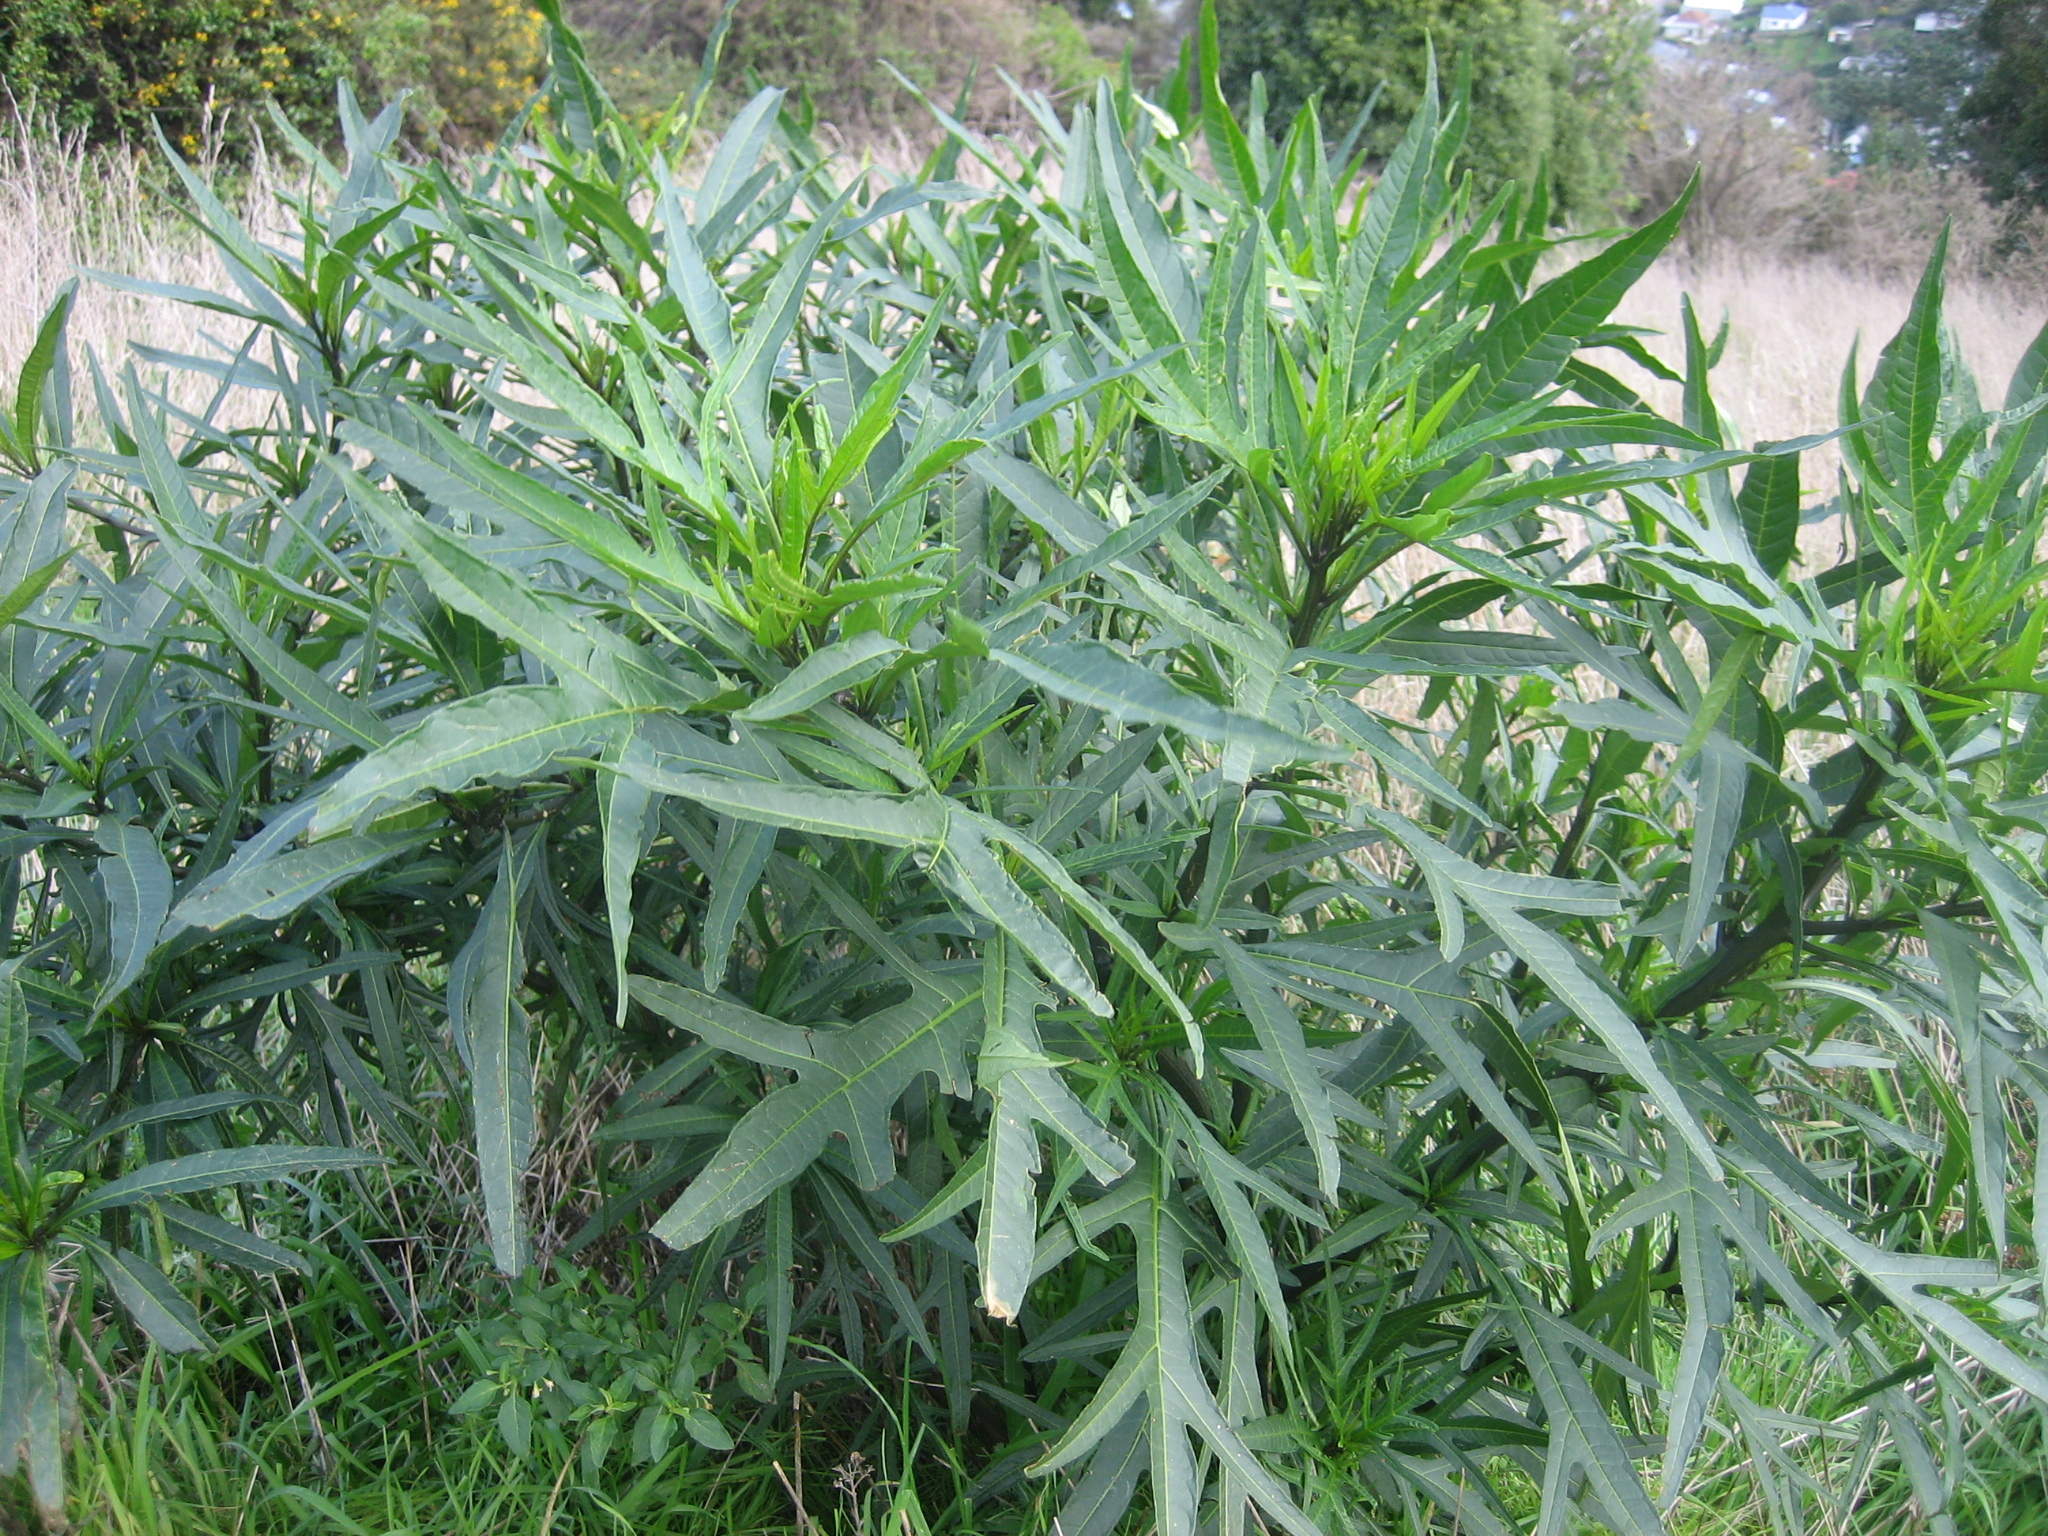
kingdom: Plantae
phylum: Tracheophyta
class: Magnoliopsida
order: Solanales
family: Solanaceae
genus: Solanum
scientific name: Solanum
